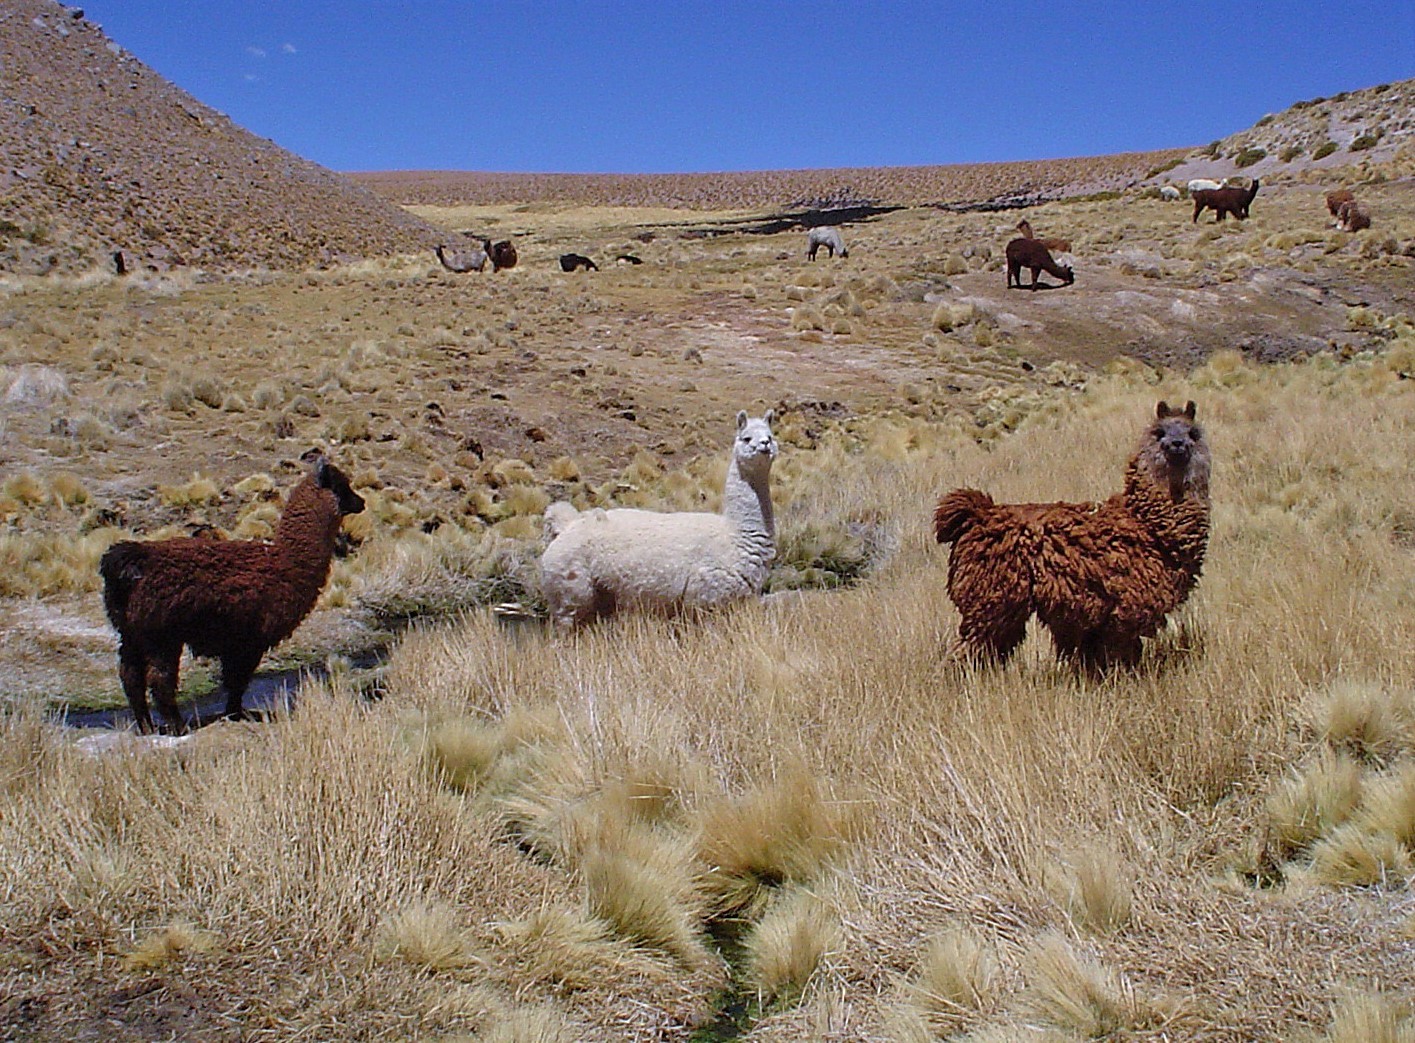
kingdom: Animalia
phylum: Chordata
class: Mammalia
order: Artiodactyla
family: Camelidae
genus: Lama
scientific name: Lama glama
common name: Llama
